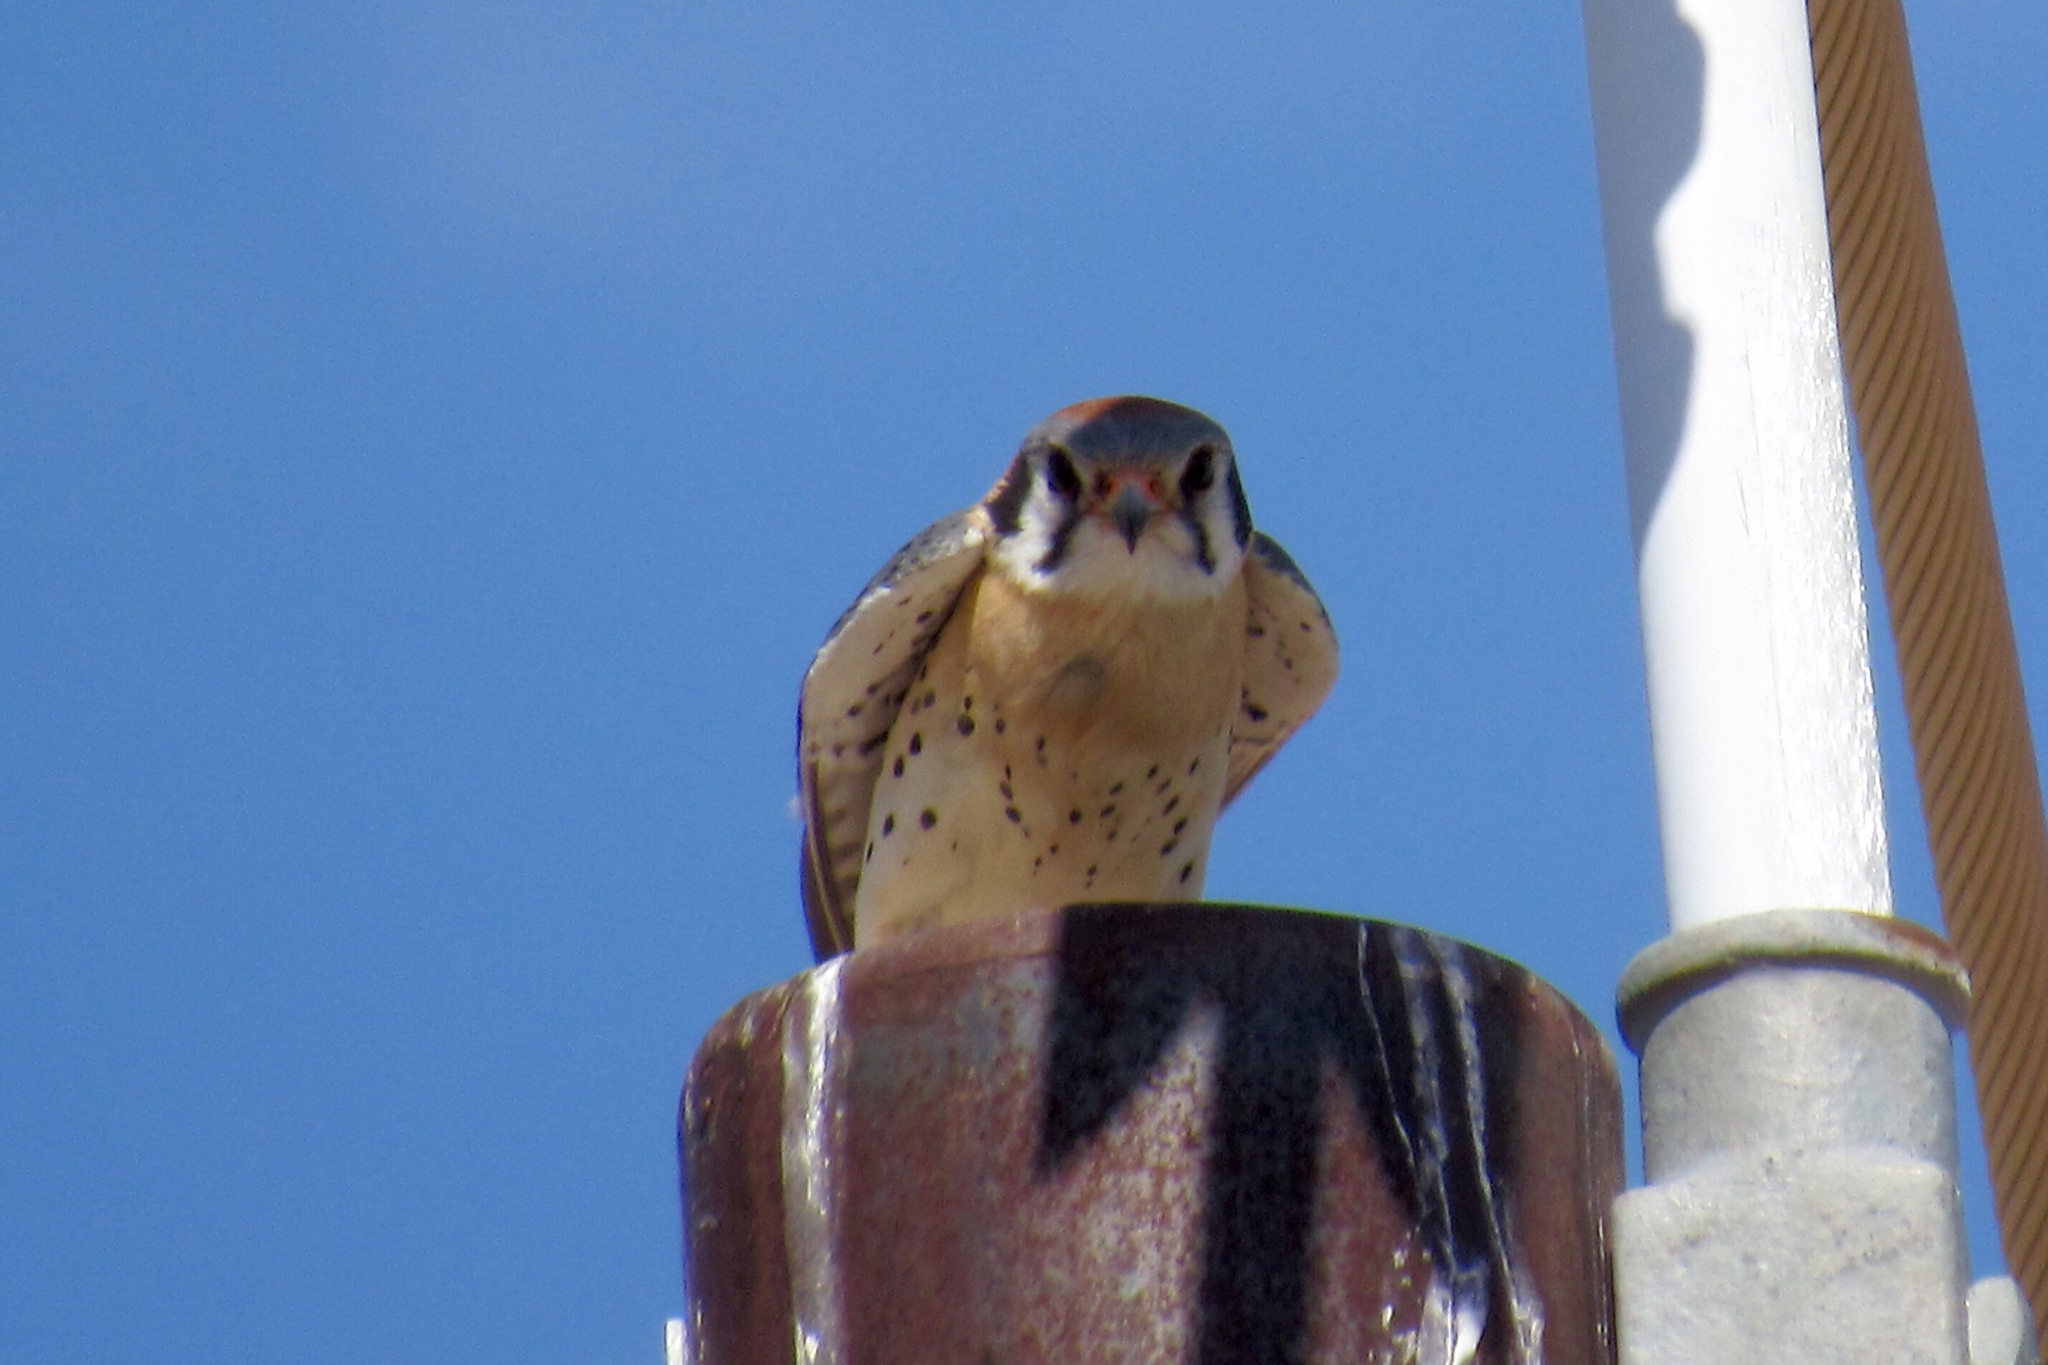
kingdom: Animalia
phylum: Chordata
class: Aves
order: Falconiformes
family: Falconidae
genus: Falco
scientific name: Falco sparverius
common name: American kestrel
